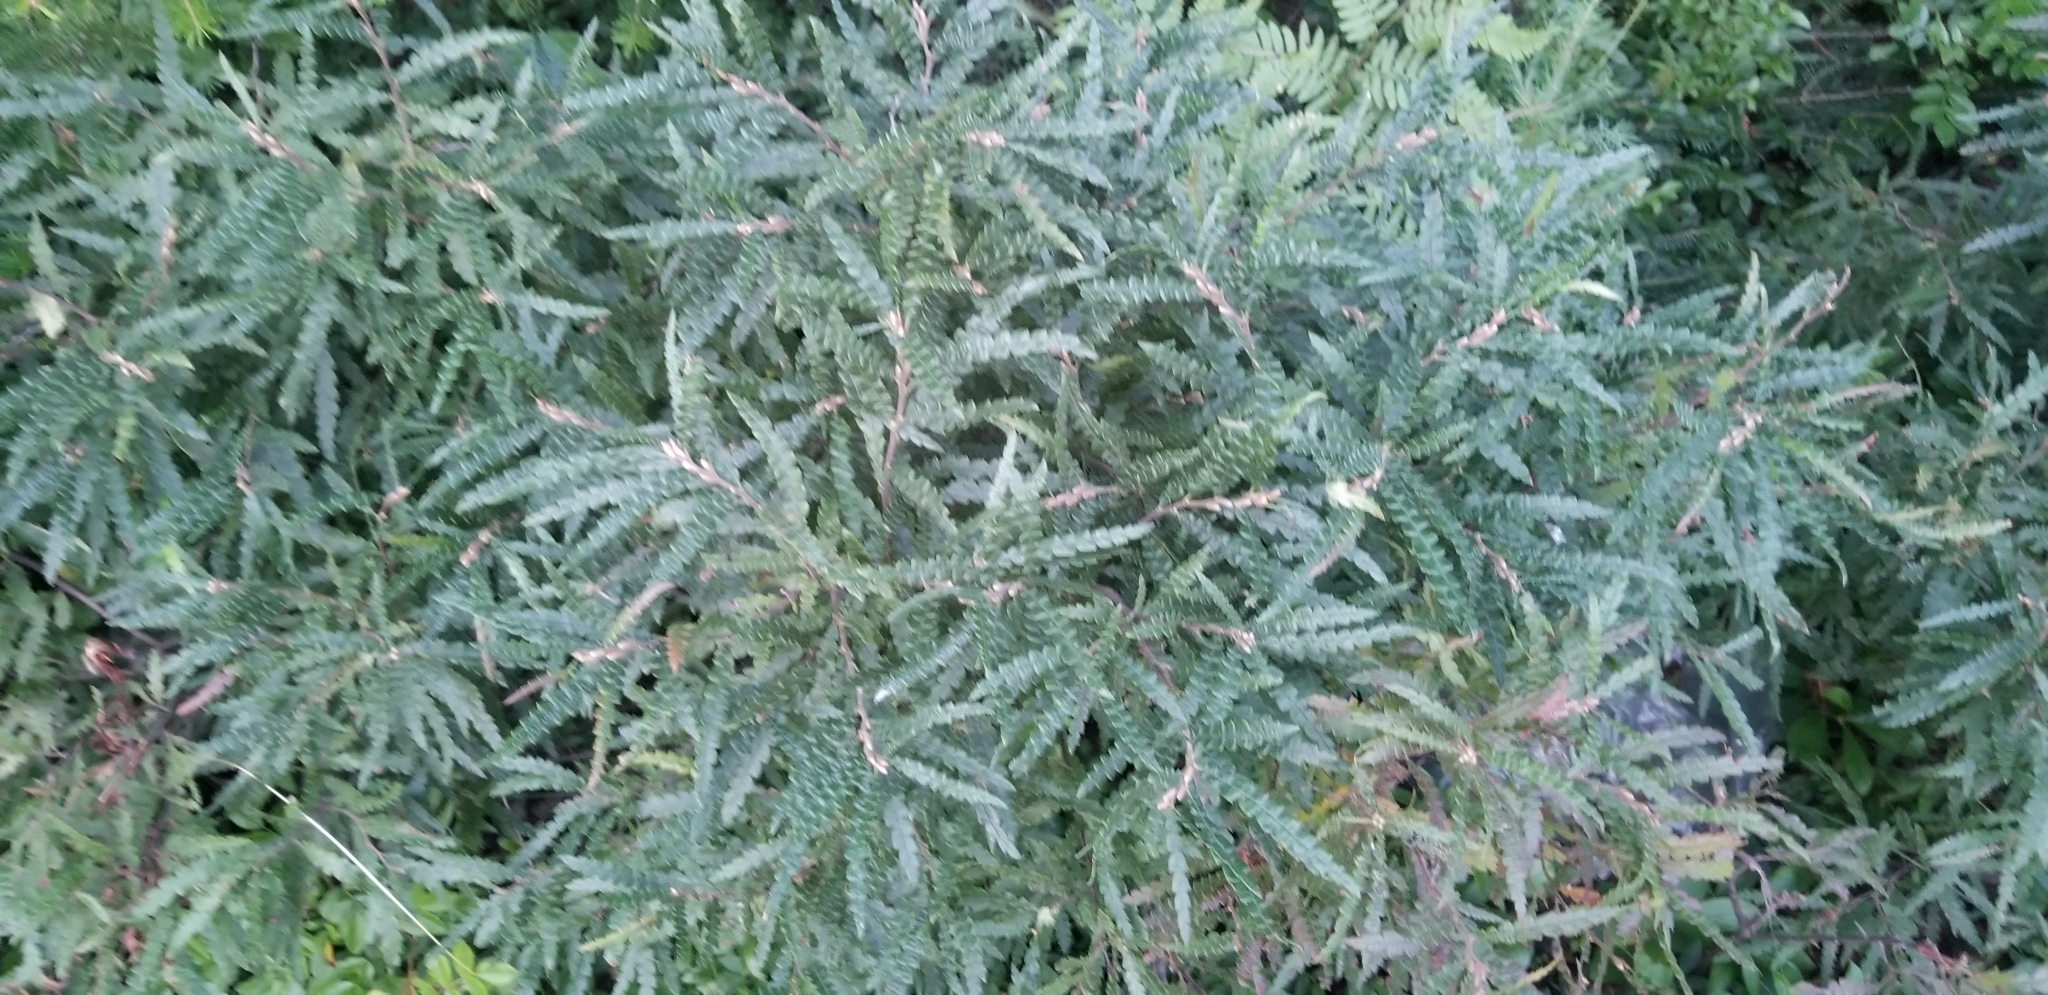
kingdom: Plantae
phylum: Tracheophyta
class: Magnoliopsida
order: Fagales
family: Myricaceae
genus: Comptonia
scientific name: Comptonia peregrina
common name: Sweet-fern
